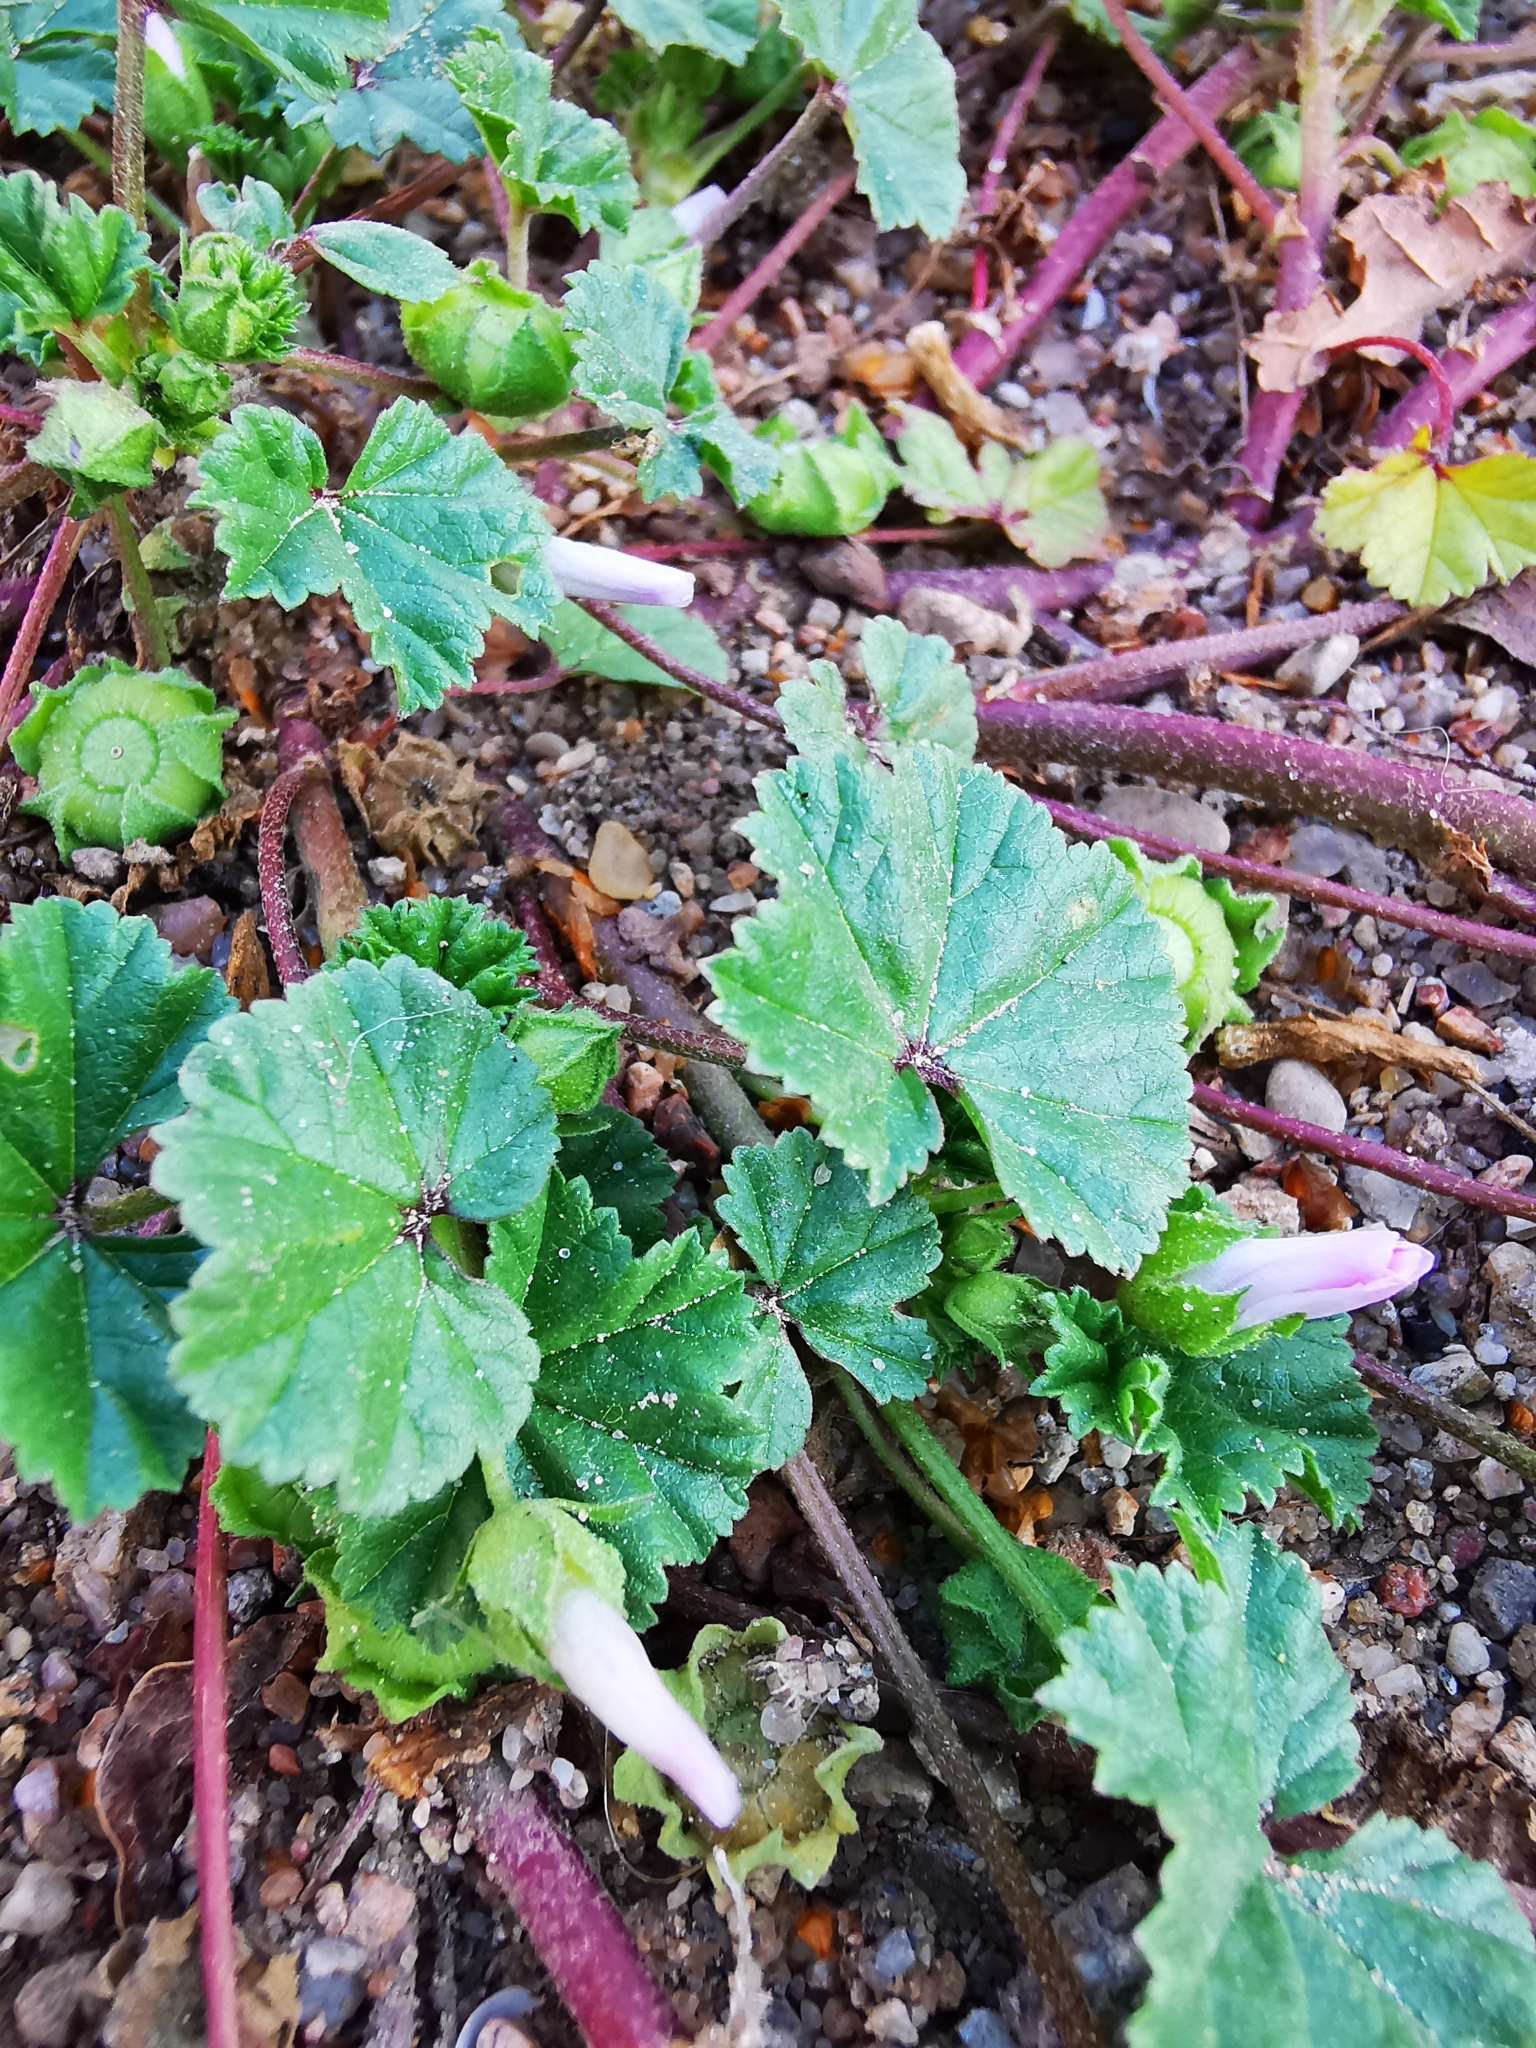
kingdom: Plantae
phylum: Tracheophyta
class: Magnoliopsida
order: Malvales
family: Malvaceae
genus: Malva
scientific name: Malva neglecta
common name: Common mallow
